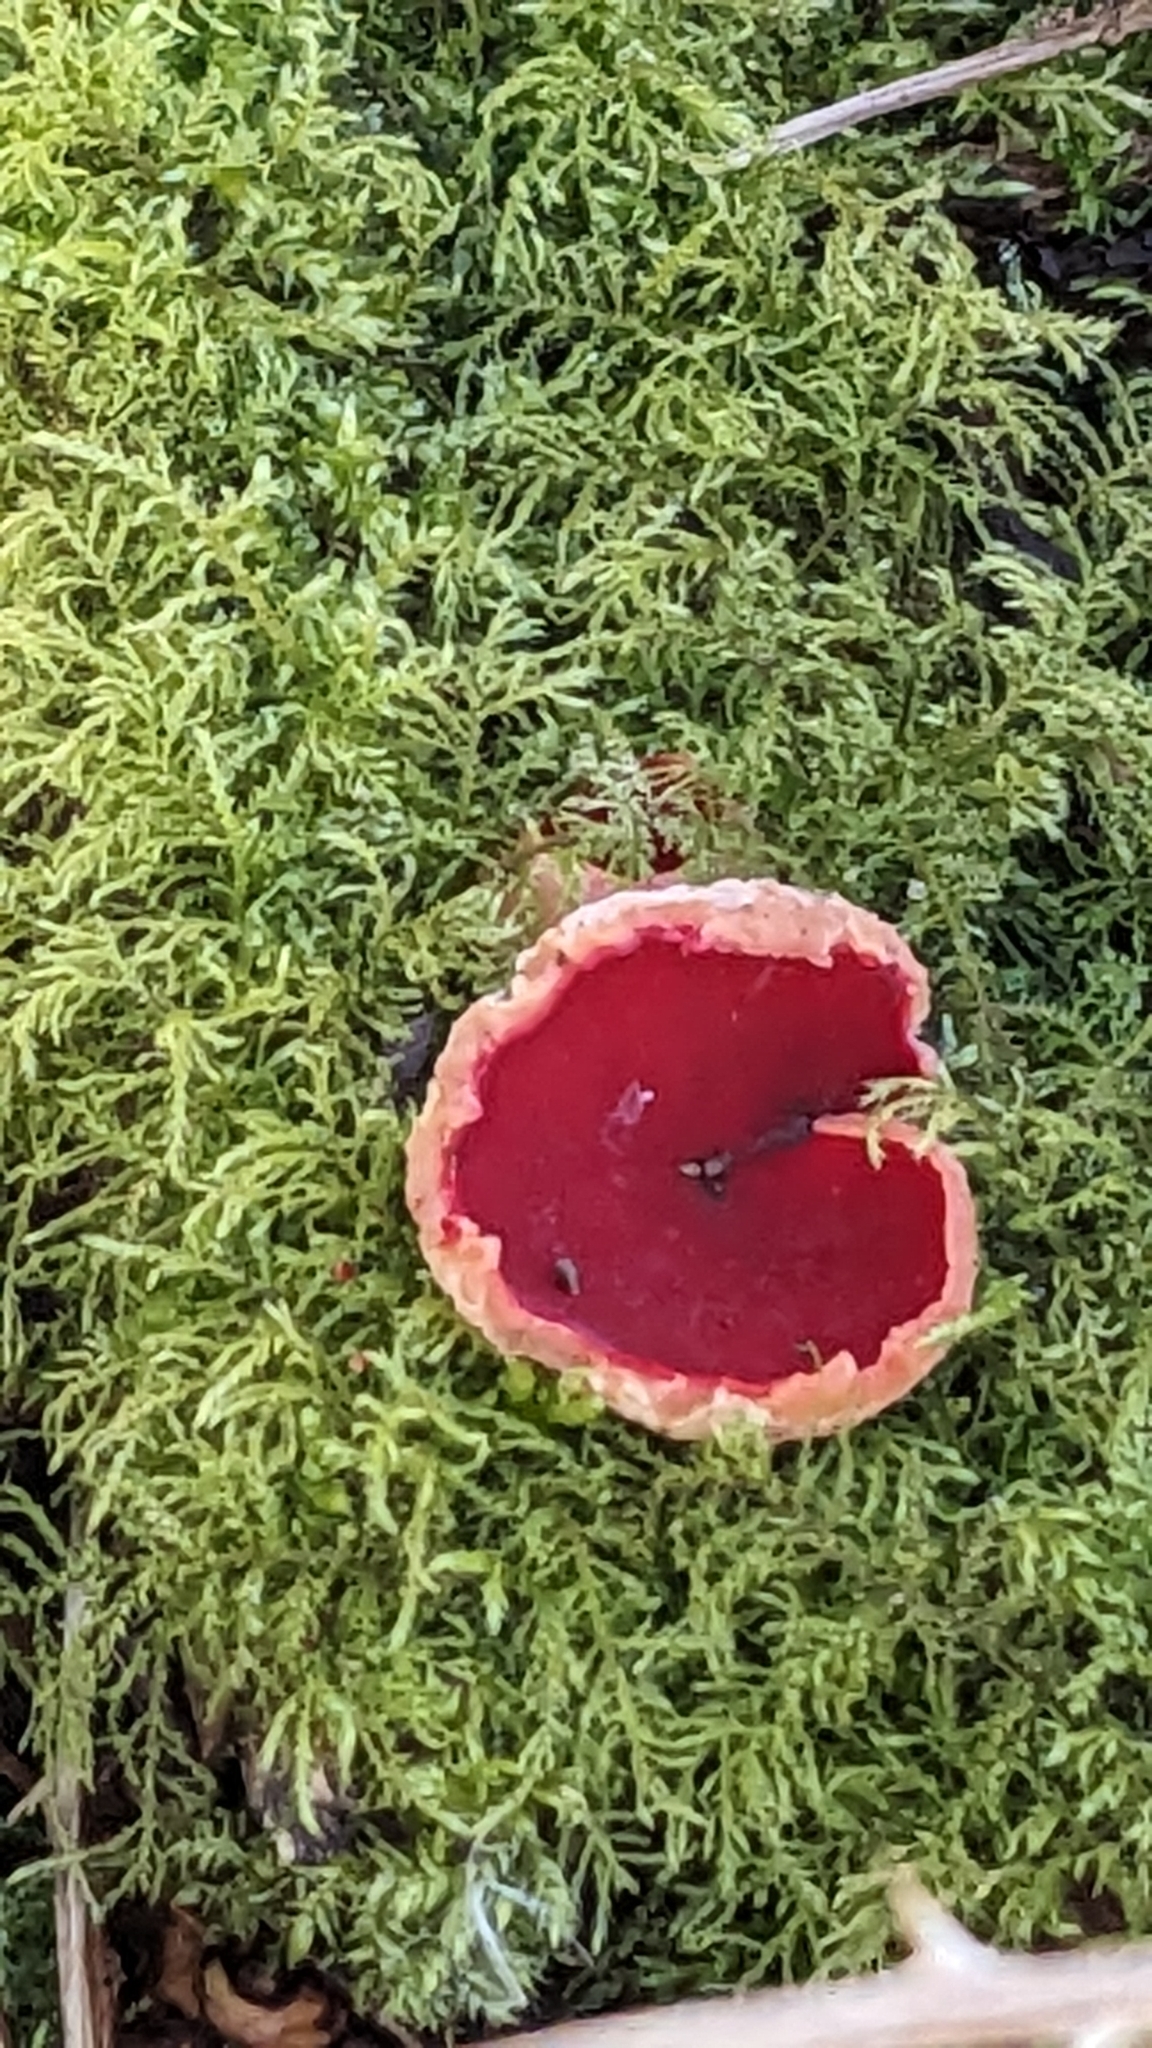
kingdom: Fungi
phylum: Ascomycota
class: Pezizomycetes
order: Pezizales
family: Sarcoscyphaceae
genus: Sarcoscypha
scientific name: Sarcoscypha
